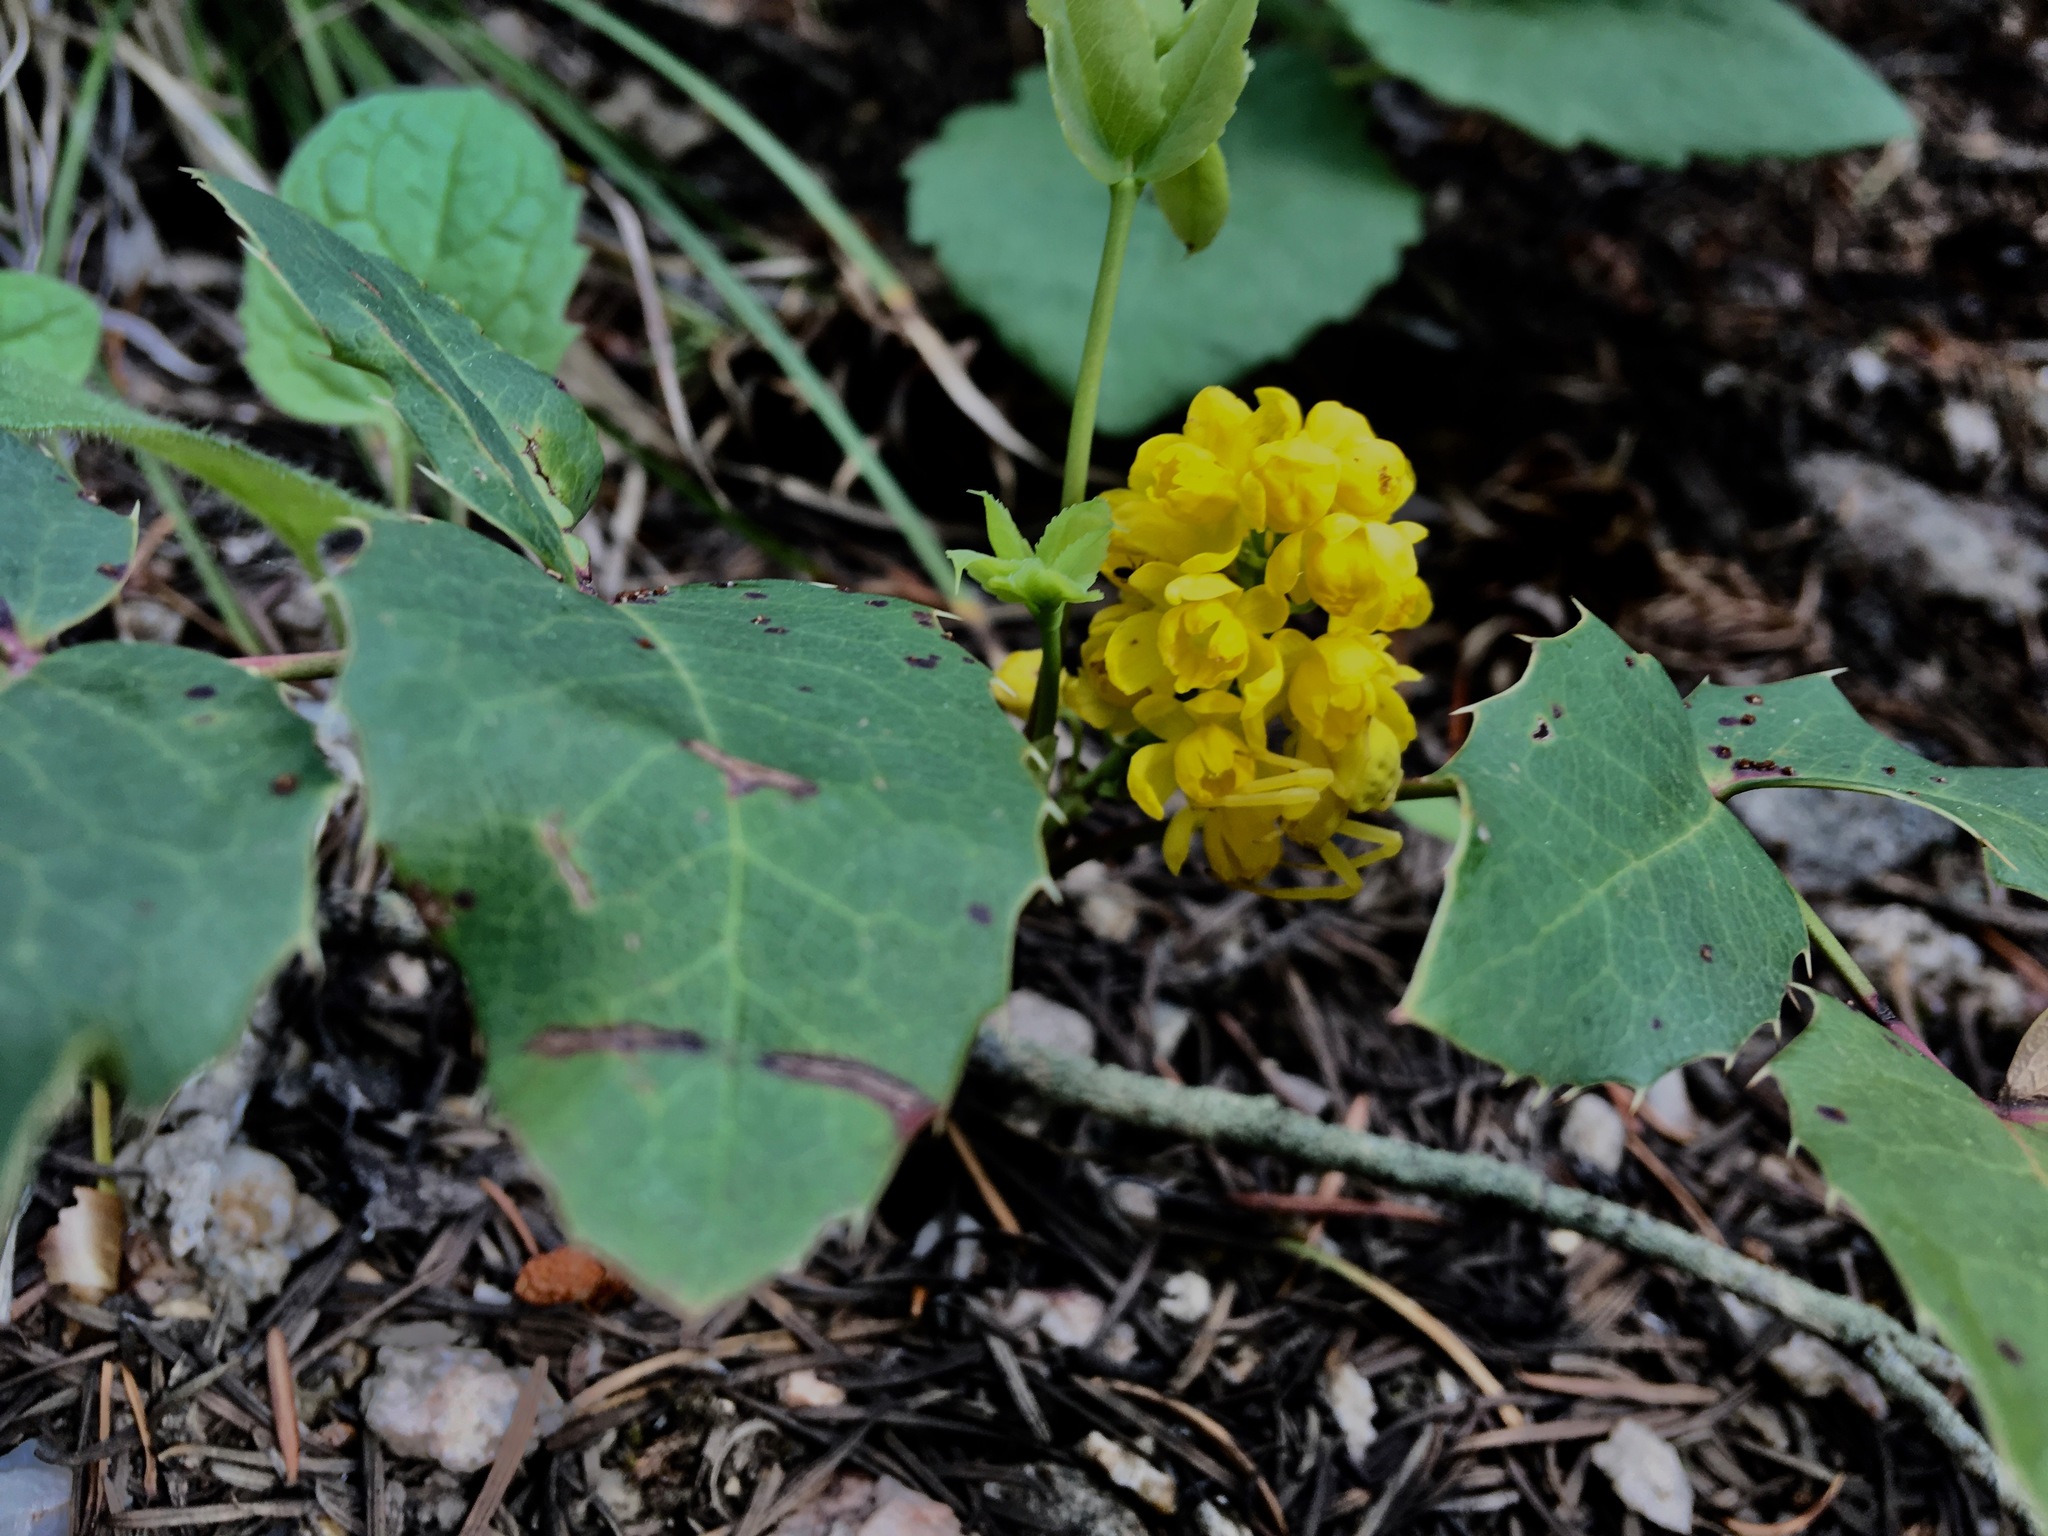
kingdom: Plantae
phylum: Tracheophyta
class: Magnoliopsida
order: Ranunculales
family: Berberidaceae
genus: Mahonia
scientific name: Mahonia repens
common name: Creeping oregon-grape
